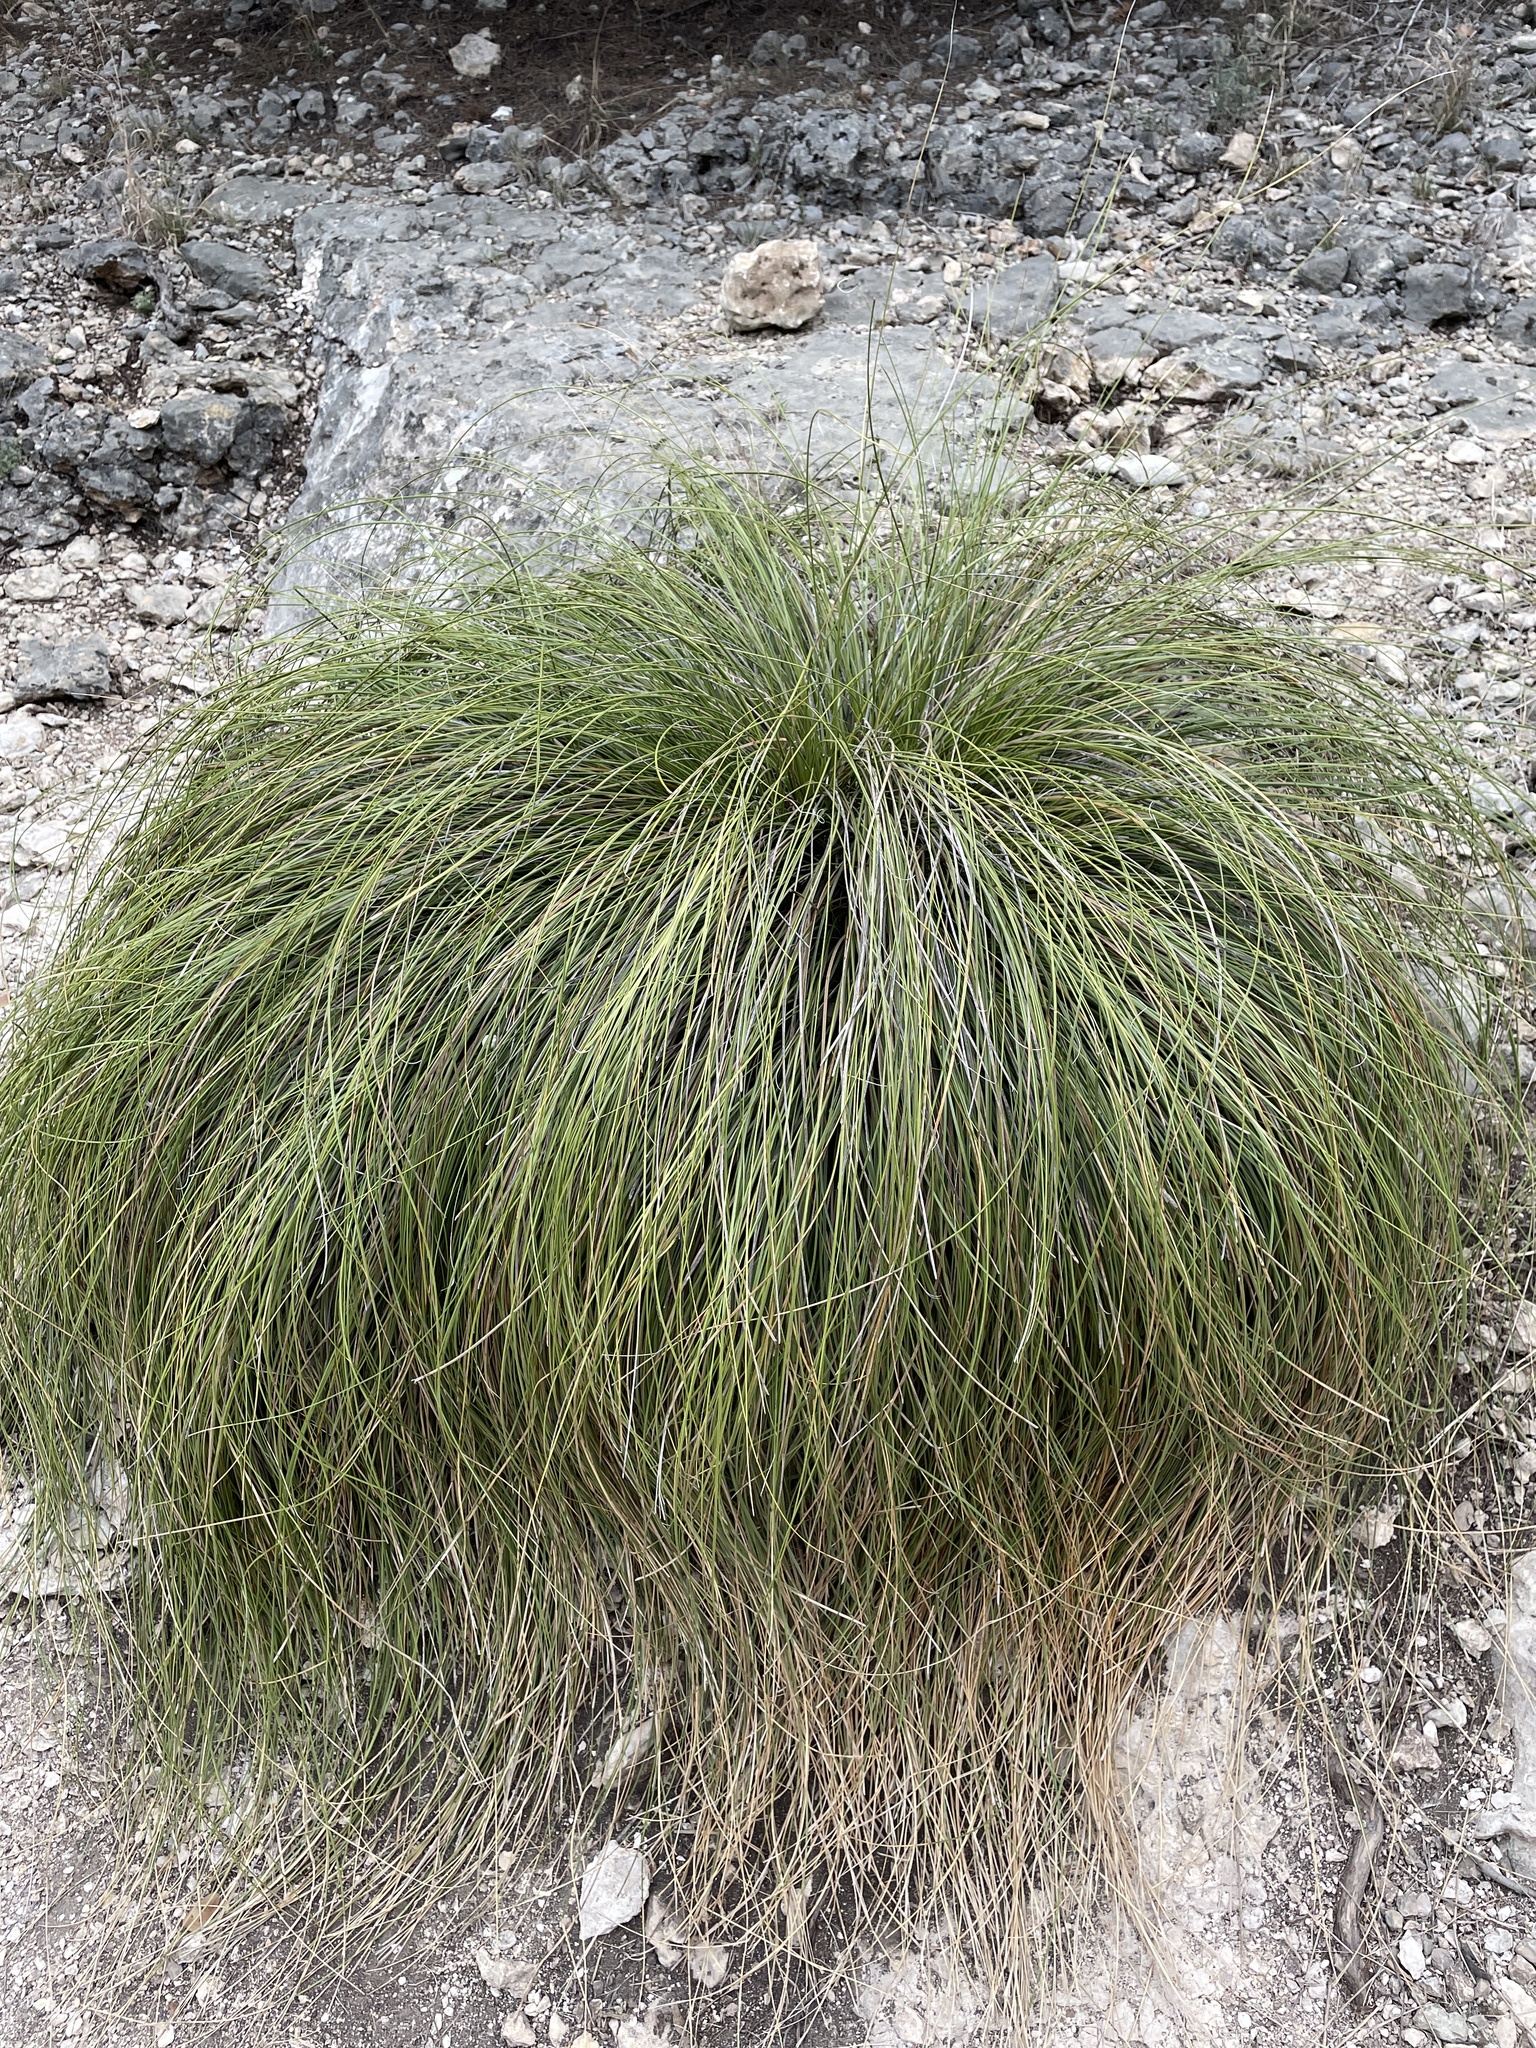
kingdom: Plantae
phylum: Tracheophyta
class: Liliopsida
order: Asparagales
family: Asparagaceae
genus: Nolina
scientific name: Nolina texana
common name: Texas sacahuiste
